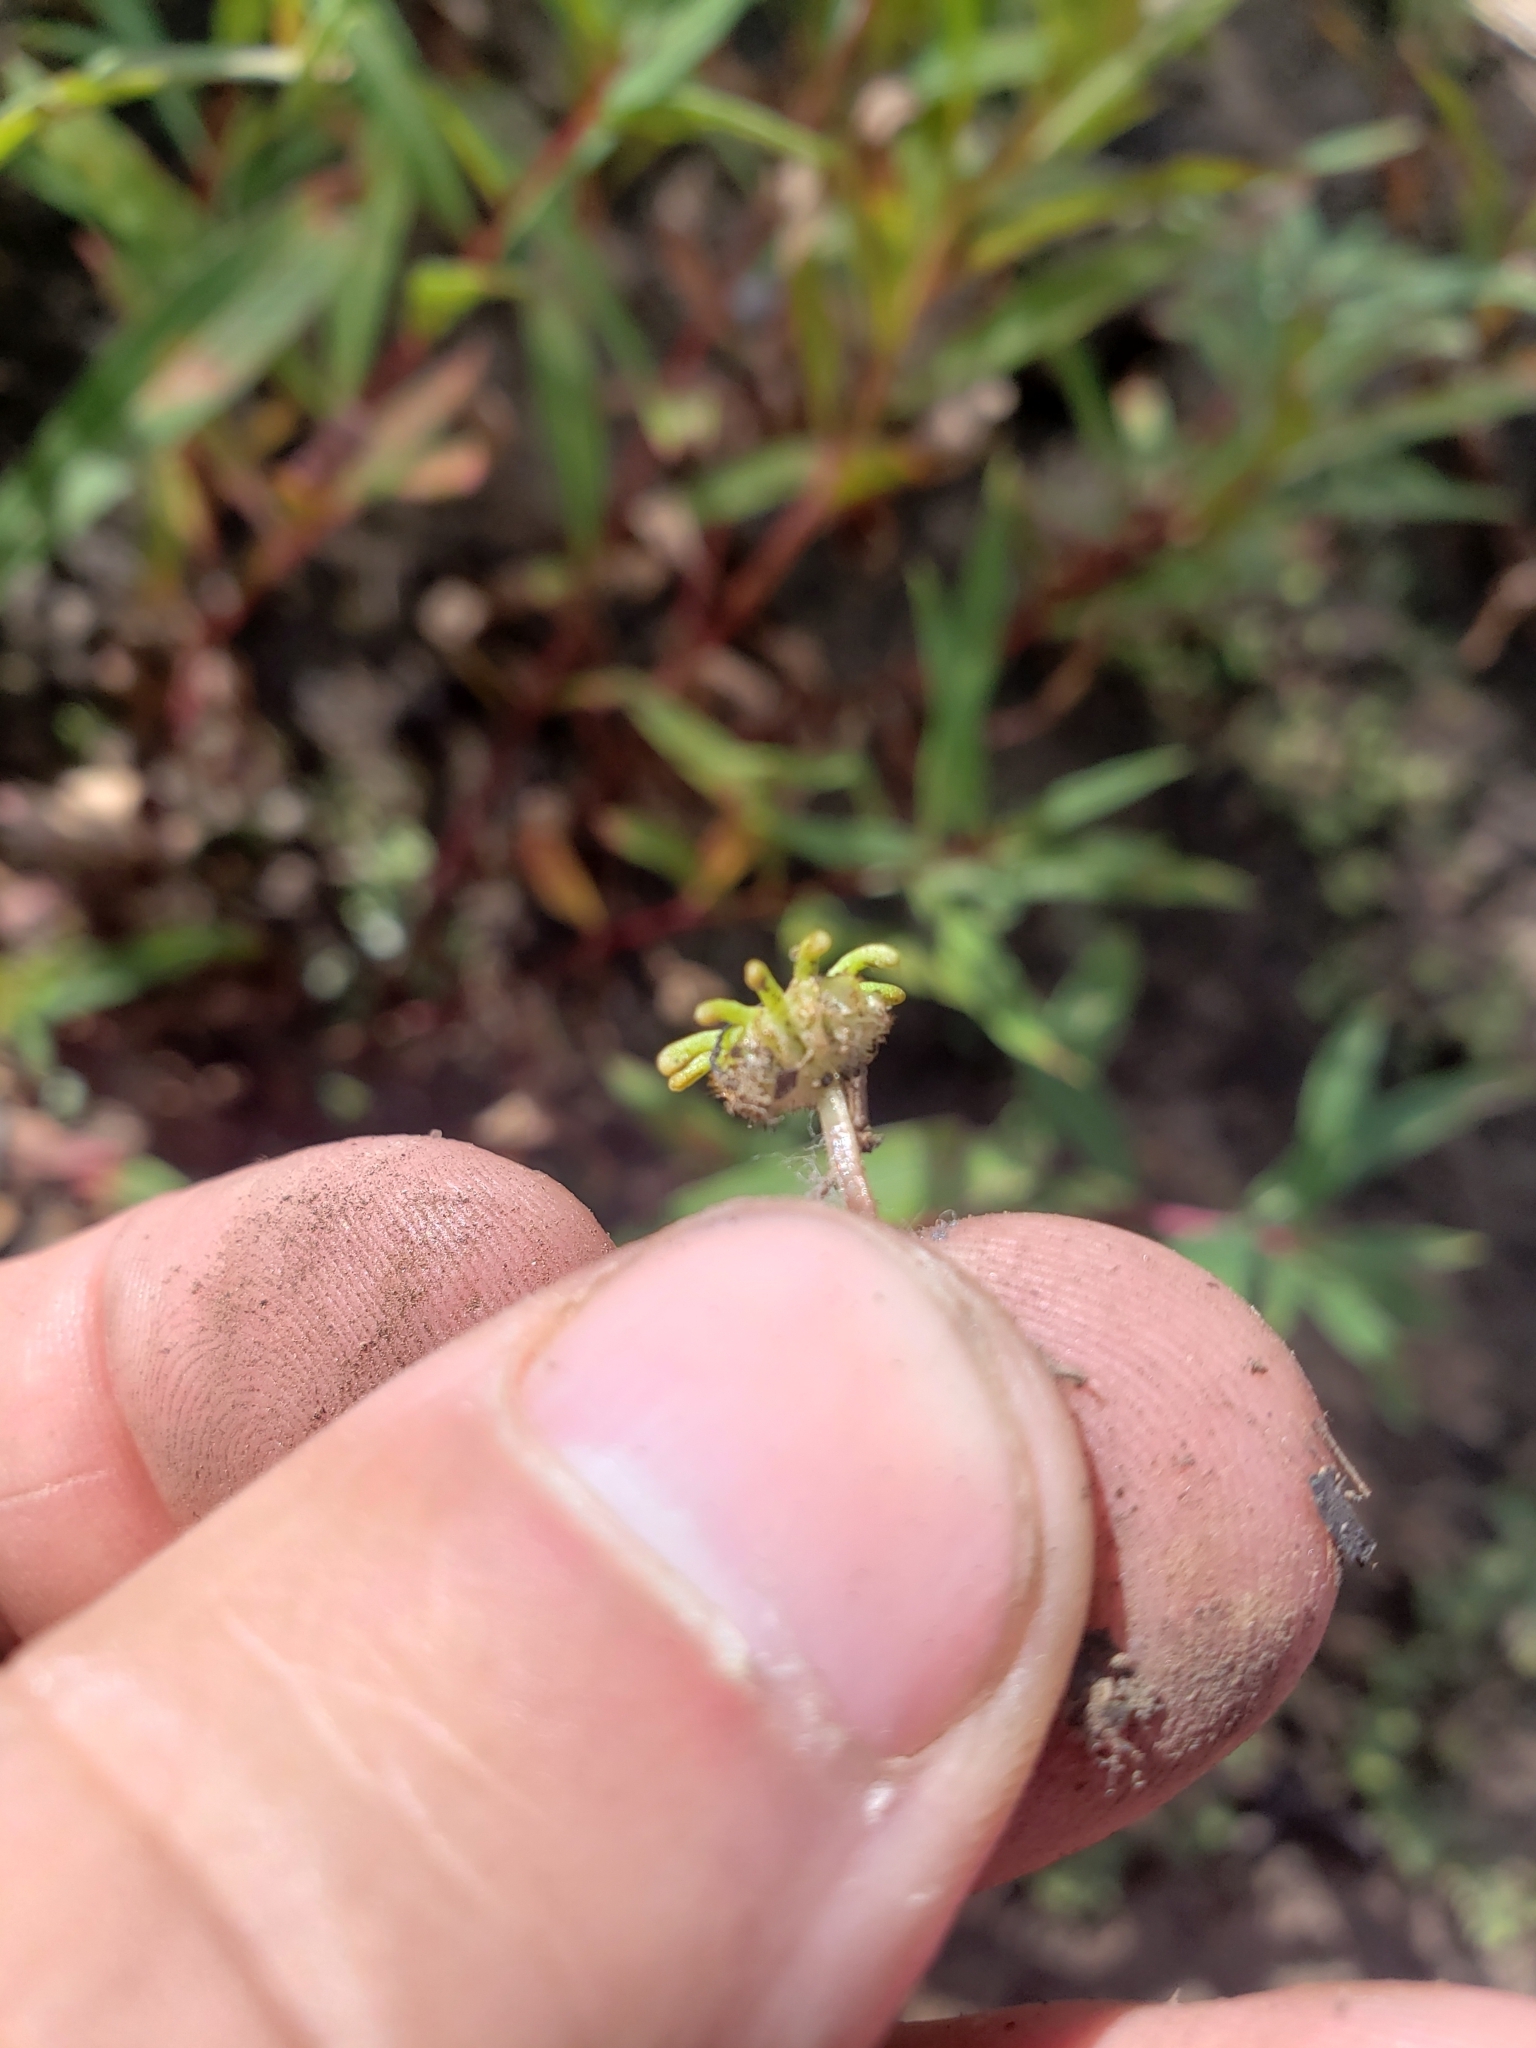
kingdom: Plantae
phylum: Marchantiophyta
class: Marchantiopsida
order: Marchantiales
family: Marchantiaceae
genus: Marchantia
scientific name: Marchantia polymorpha
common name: Common liverwort
